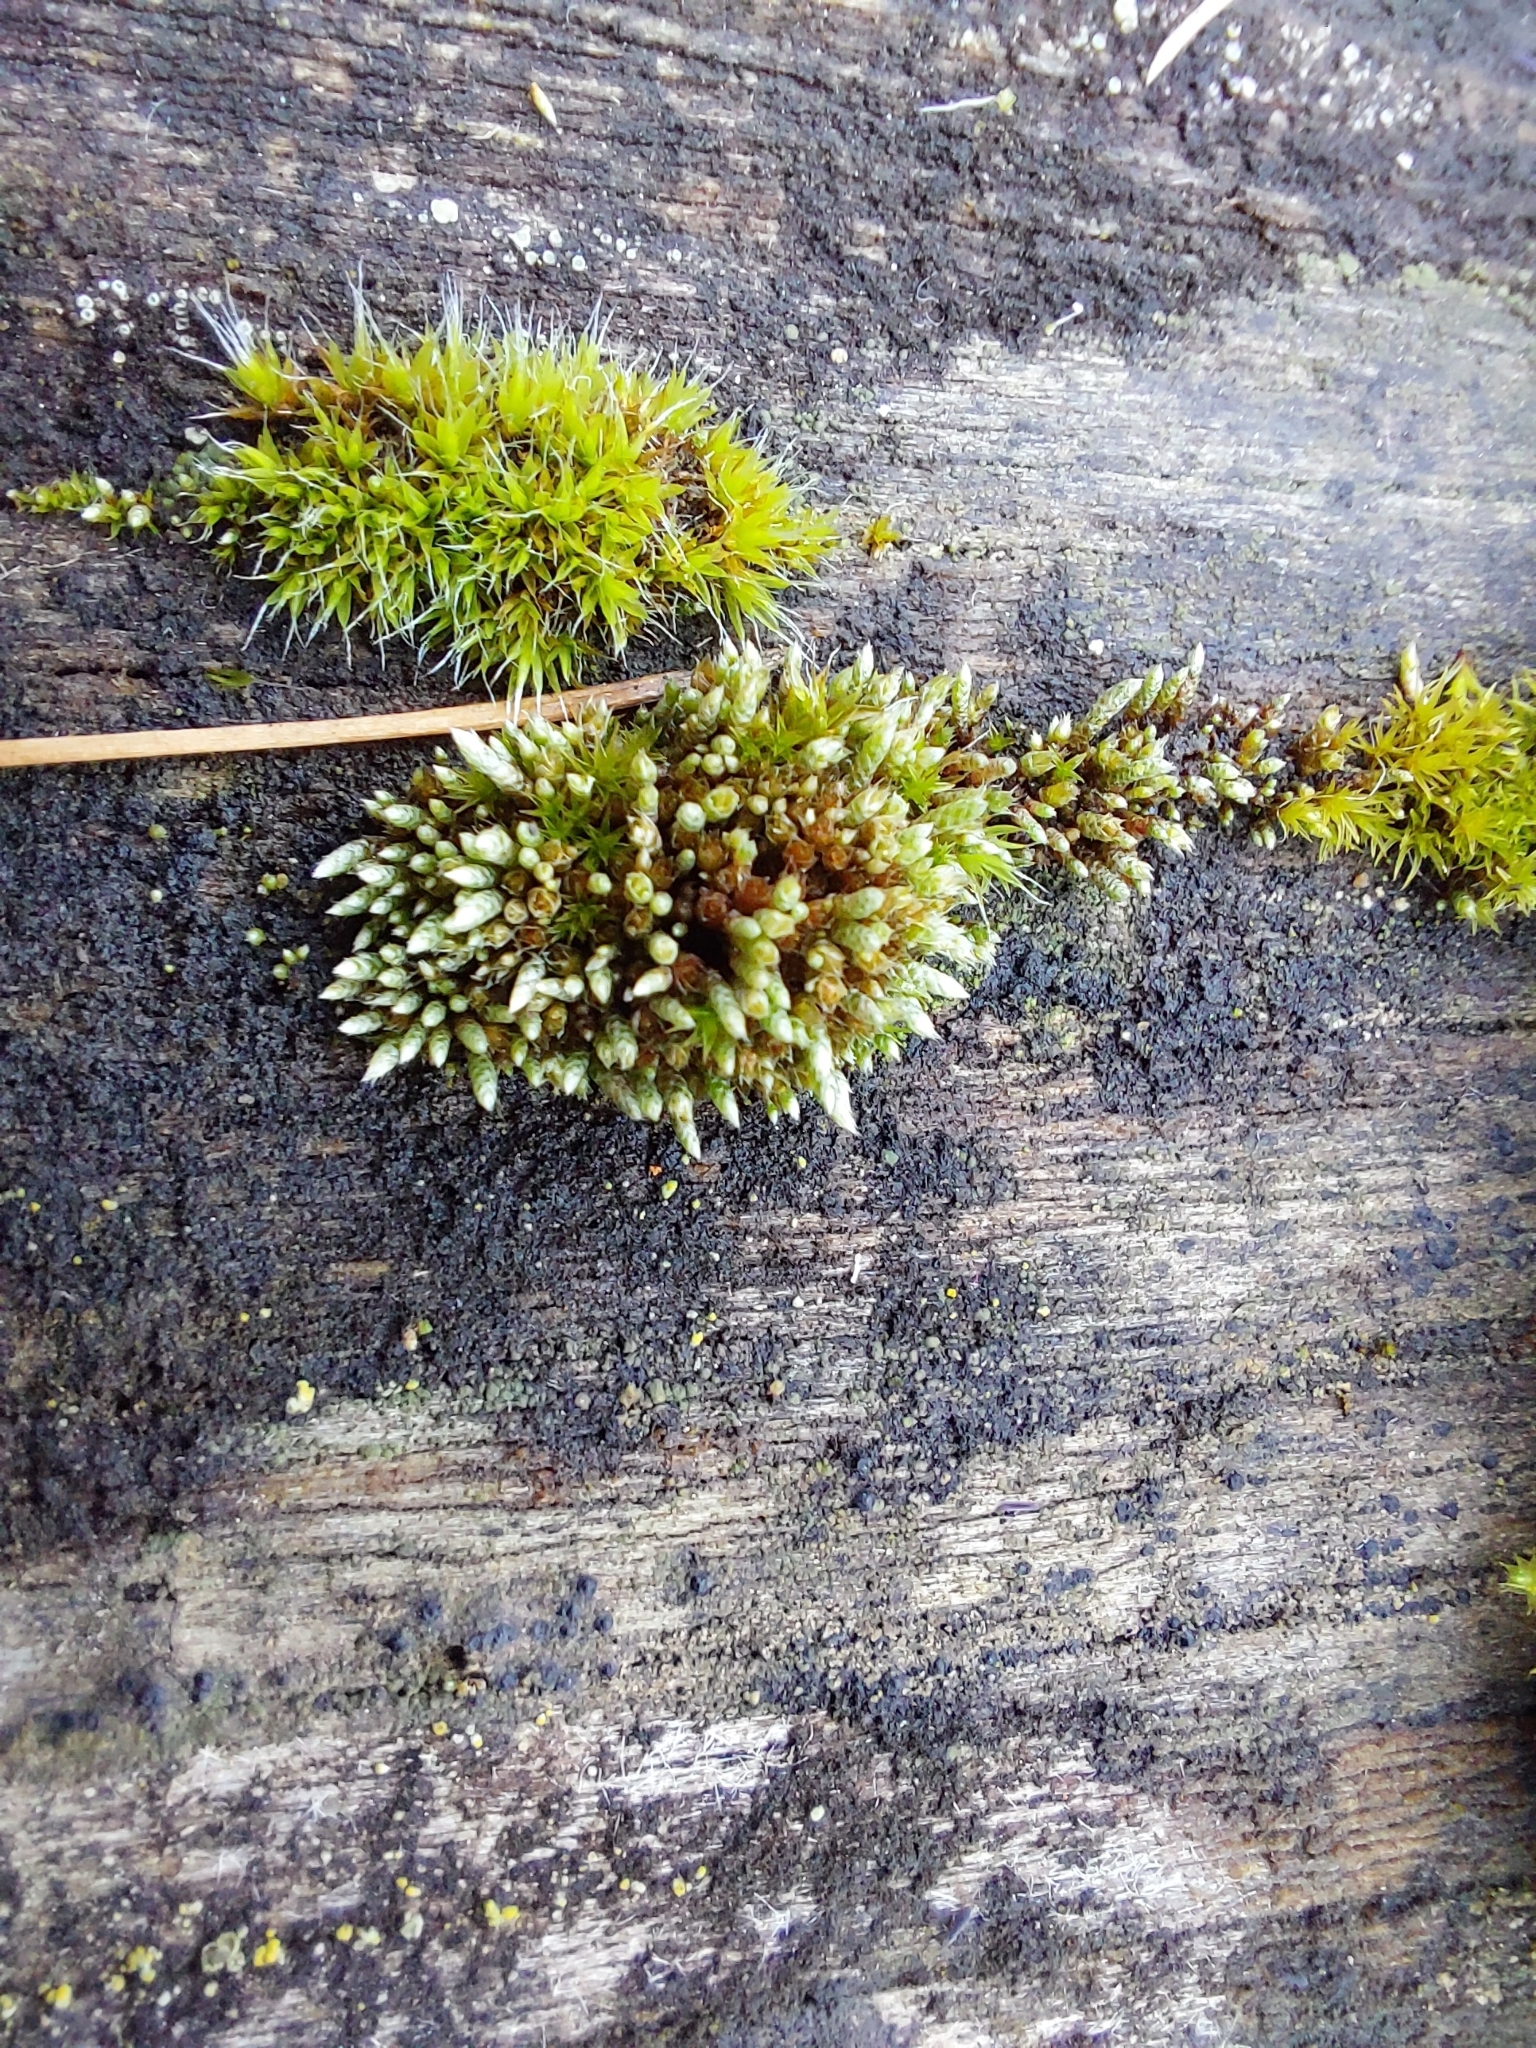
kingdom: Plantae
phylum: Bryophyta
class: Bryopsida
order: Bryales
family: Bryaceae
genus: Bryum
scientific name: Bryum argenteum
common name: Silver-moss
